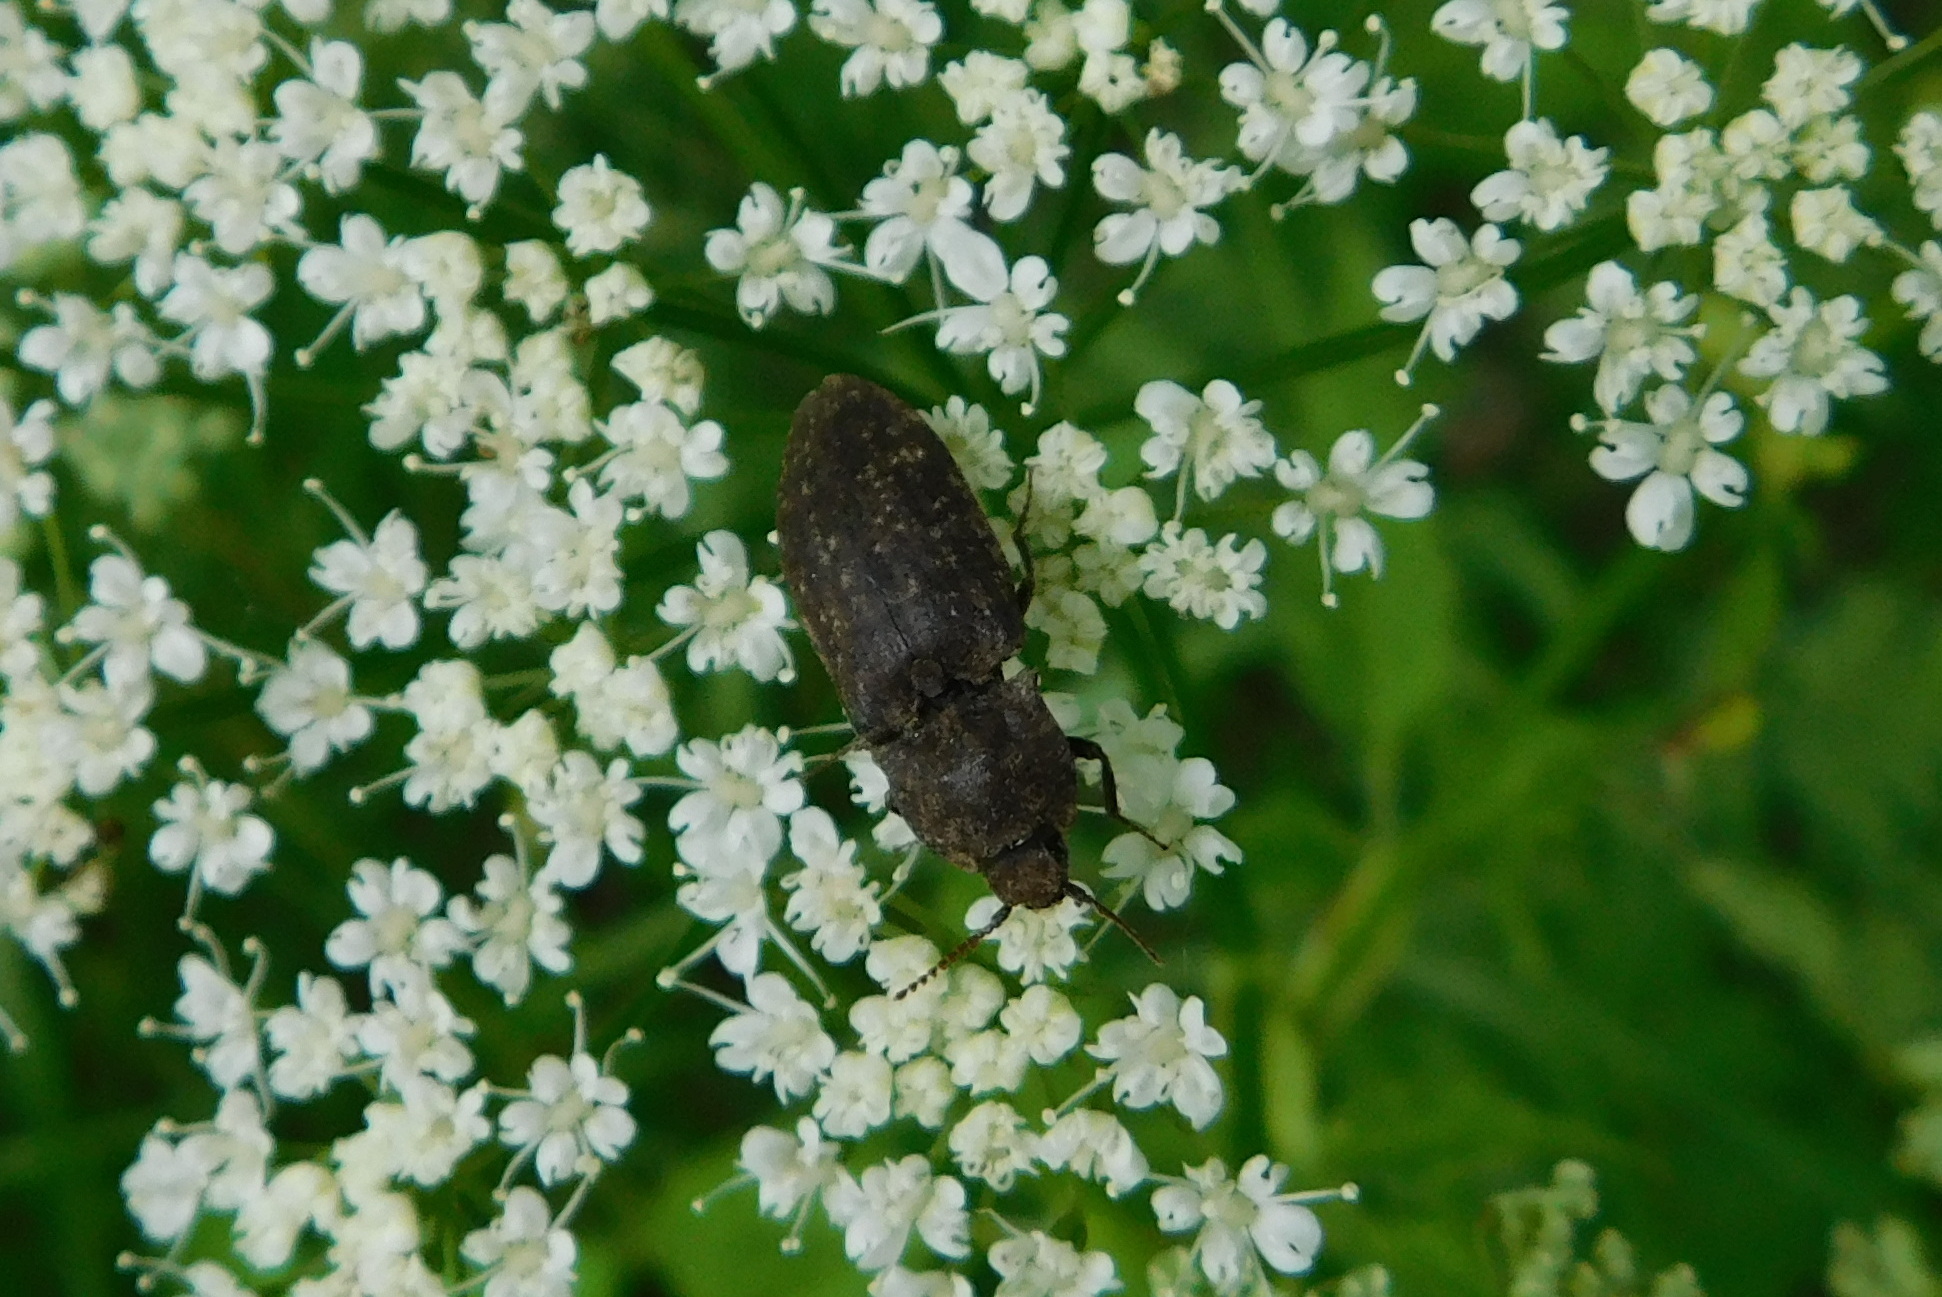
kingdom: Animalia
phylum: Arthropoda
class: Insecta
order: Coleoptera
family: Elateridae
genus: Agrypnus
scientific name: Agrypnus murinus
